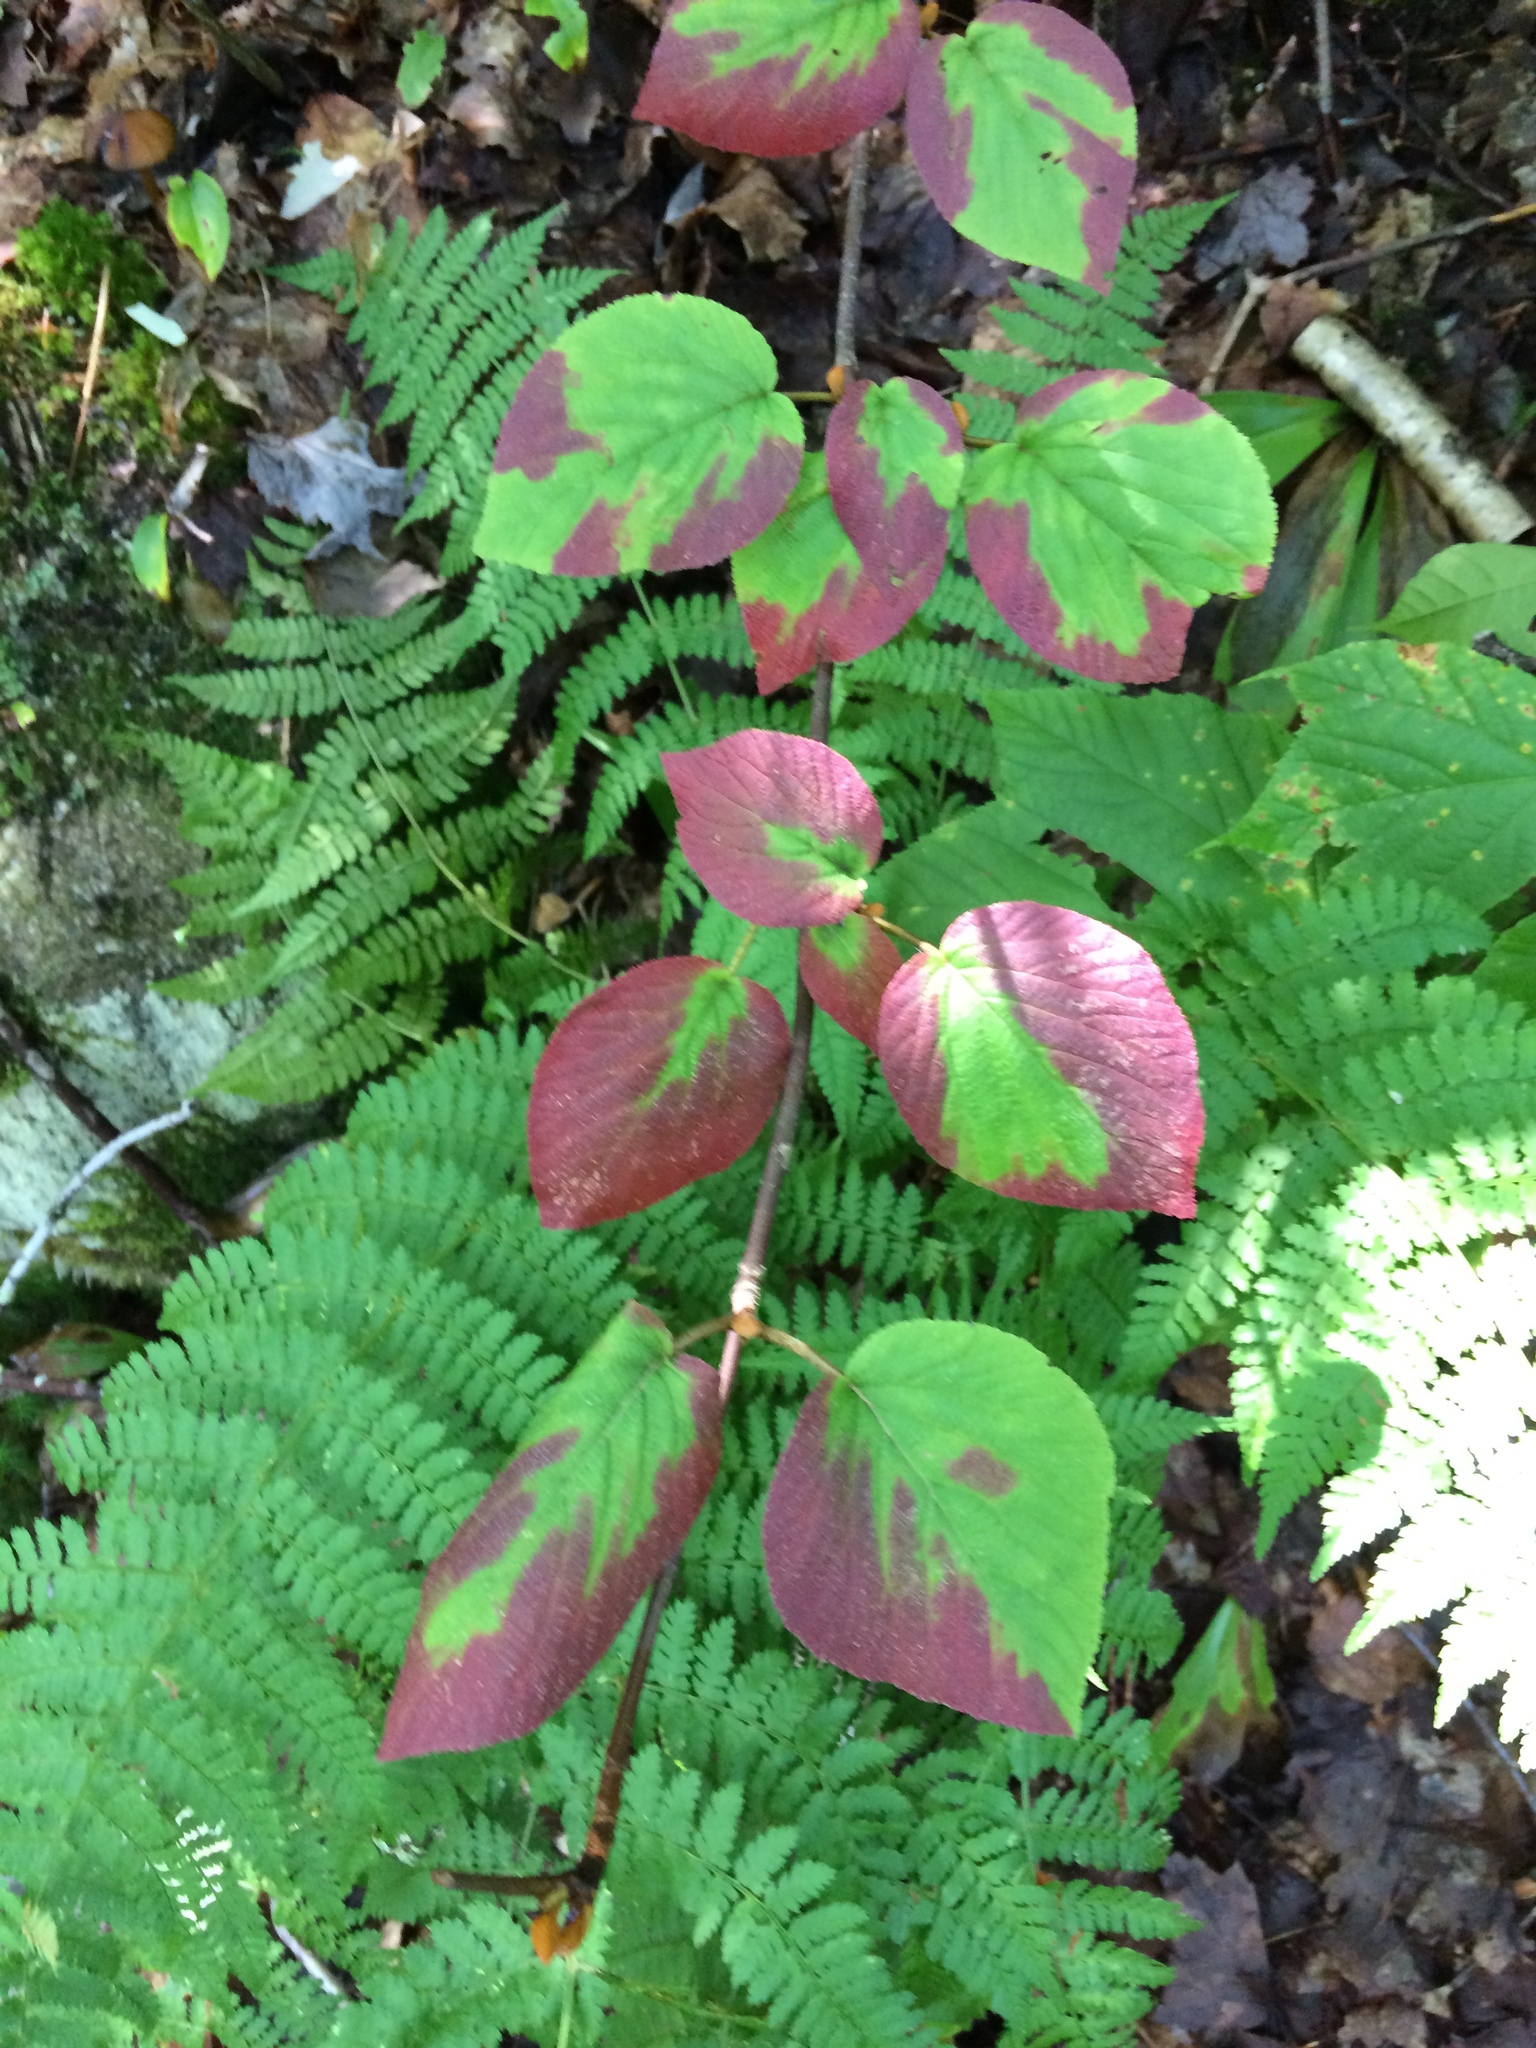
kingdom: Plantae
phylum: Tracheophyta
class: Magnoliopsida
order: Dipsacales
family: Viburnaceae
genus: Viburnum
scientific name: Viburnum lantanoides
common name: Hobblebush
